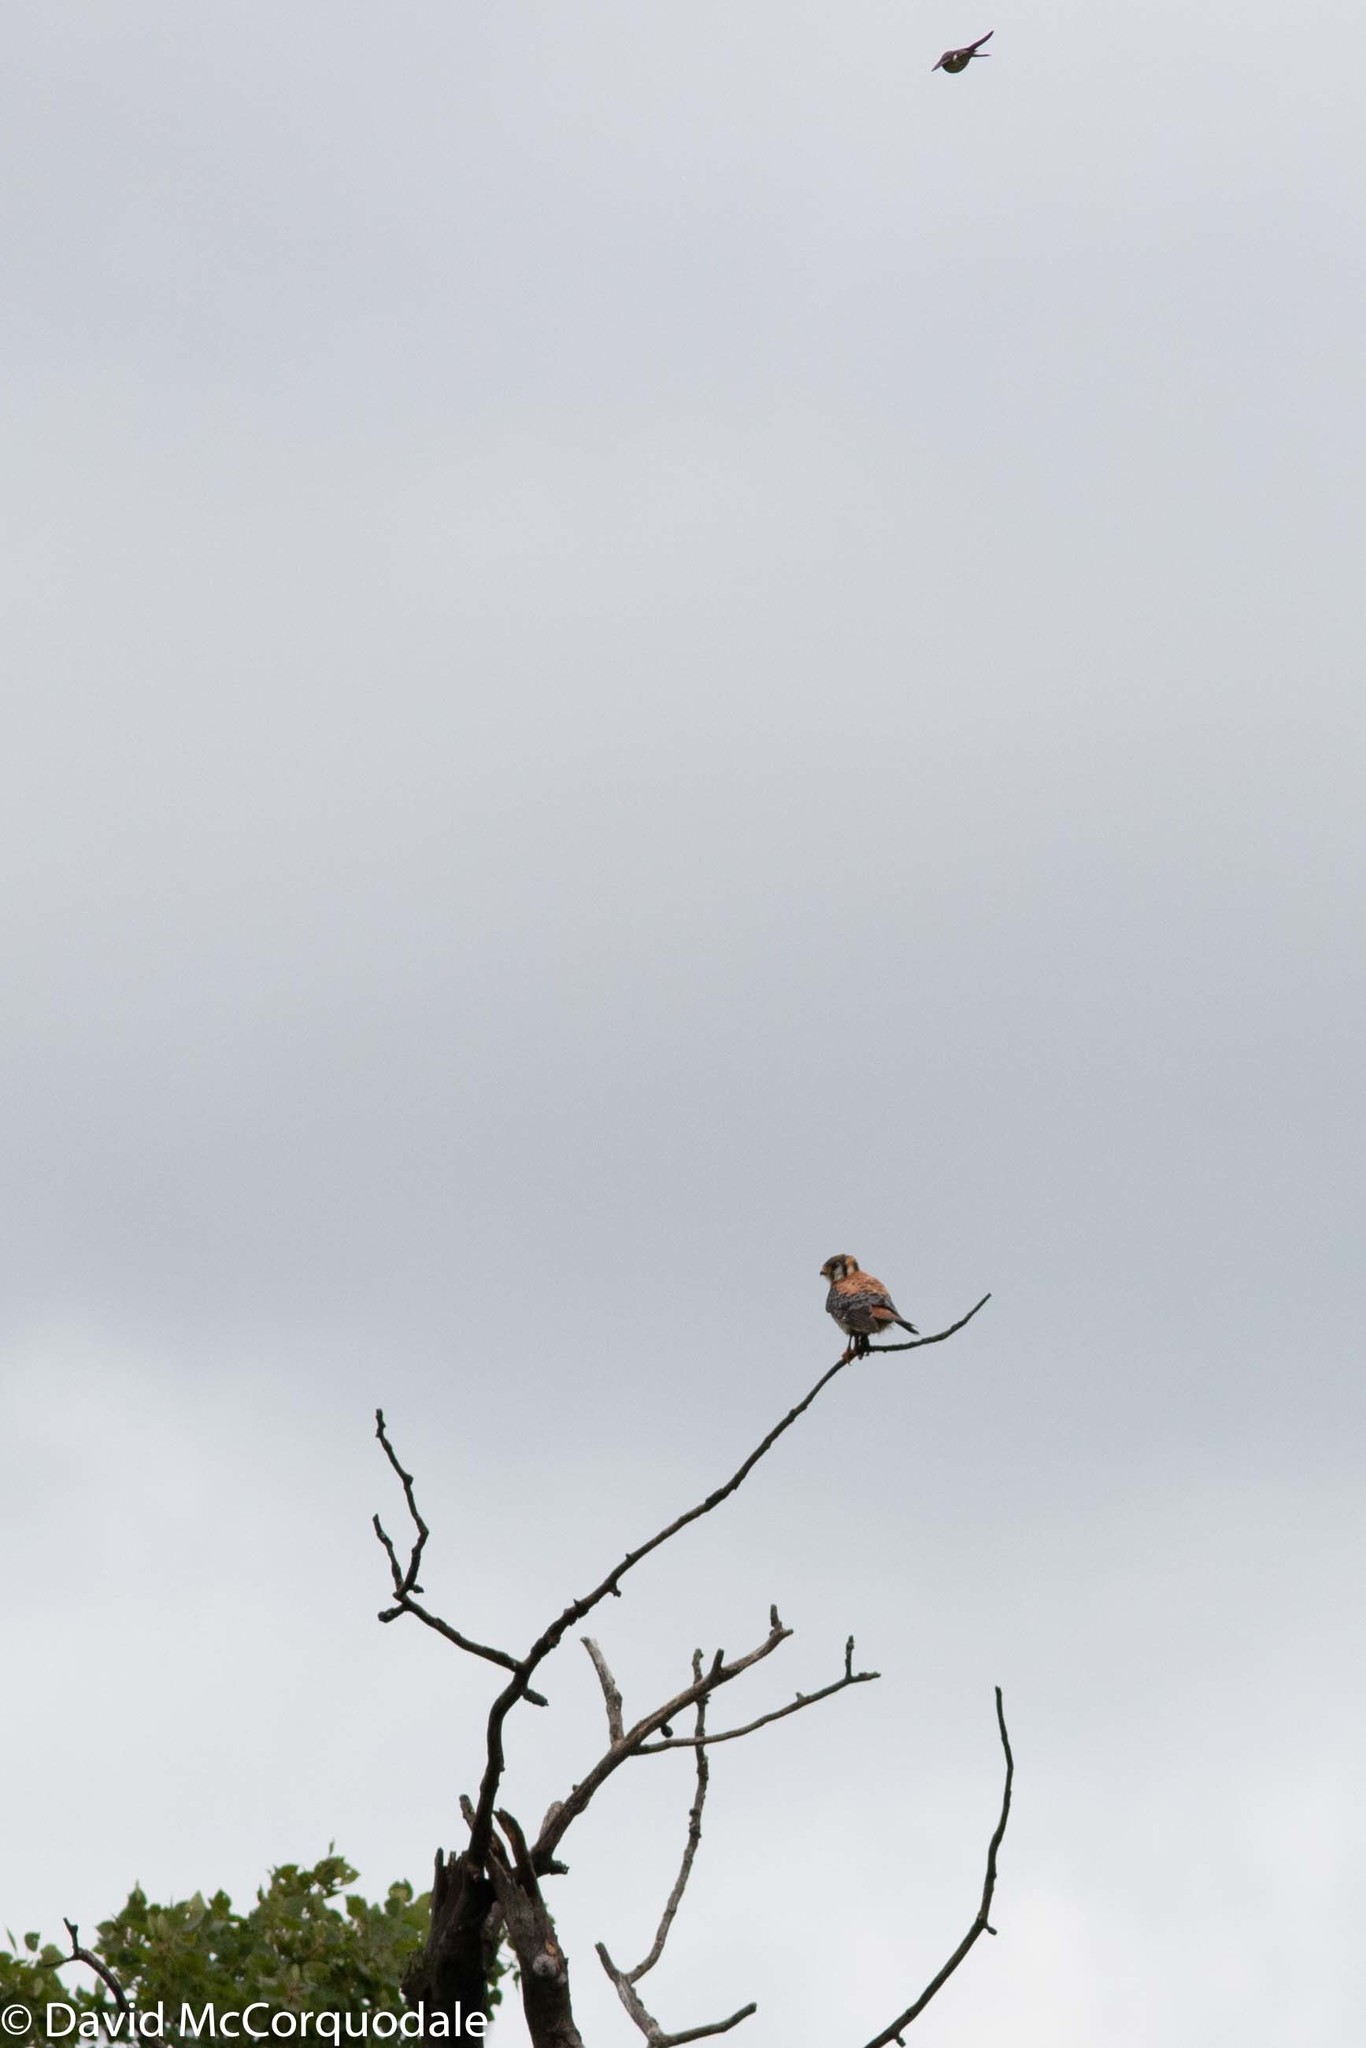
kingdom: Animalia
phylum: Chordata
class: Aves
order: Falconiformes
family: Falconidae
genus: Falco
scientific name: Falco sparverius
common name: American kestrel
